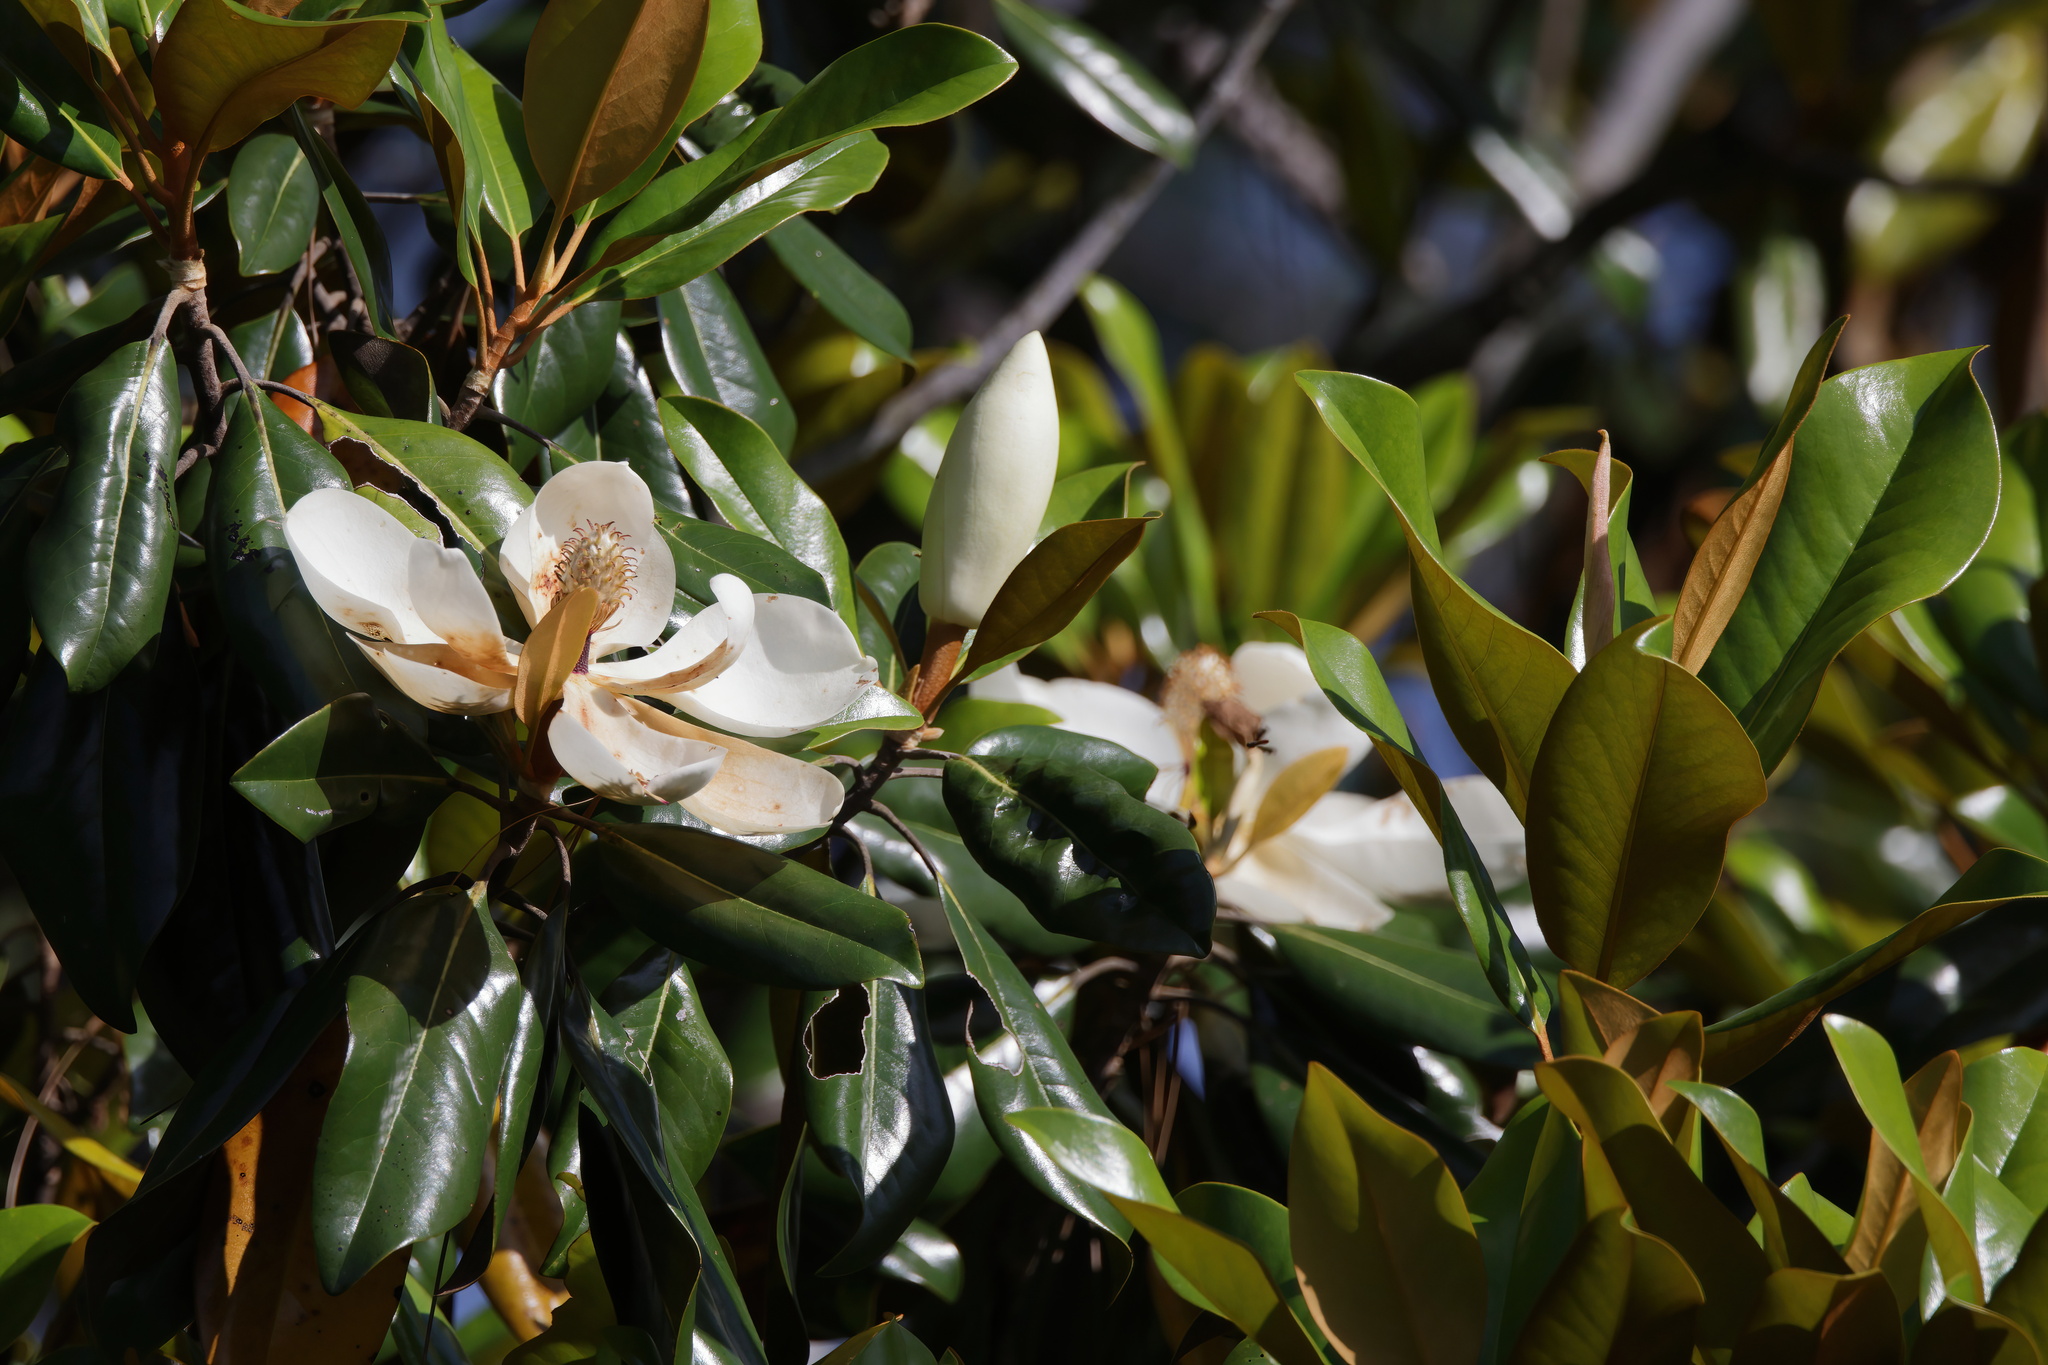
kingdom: Plantae
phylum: Tracheophyta
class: Magnoliopsida
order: Magnoliales
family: Magnoliaceae
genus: Magnolia
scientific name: Magnolia grandiflora
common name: Southern magnolia
